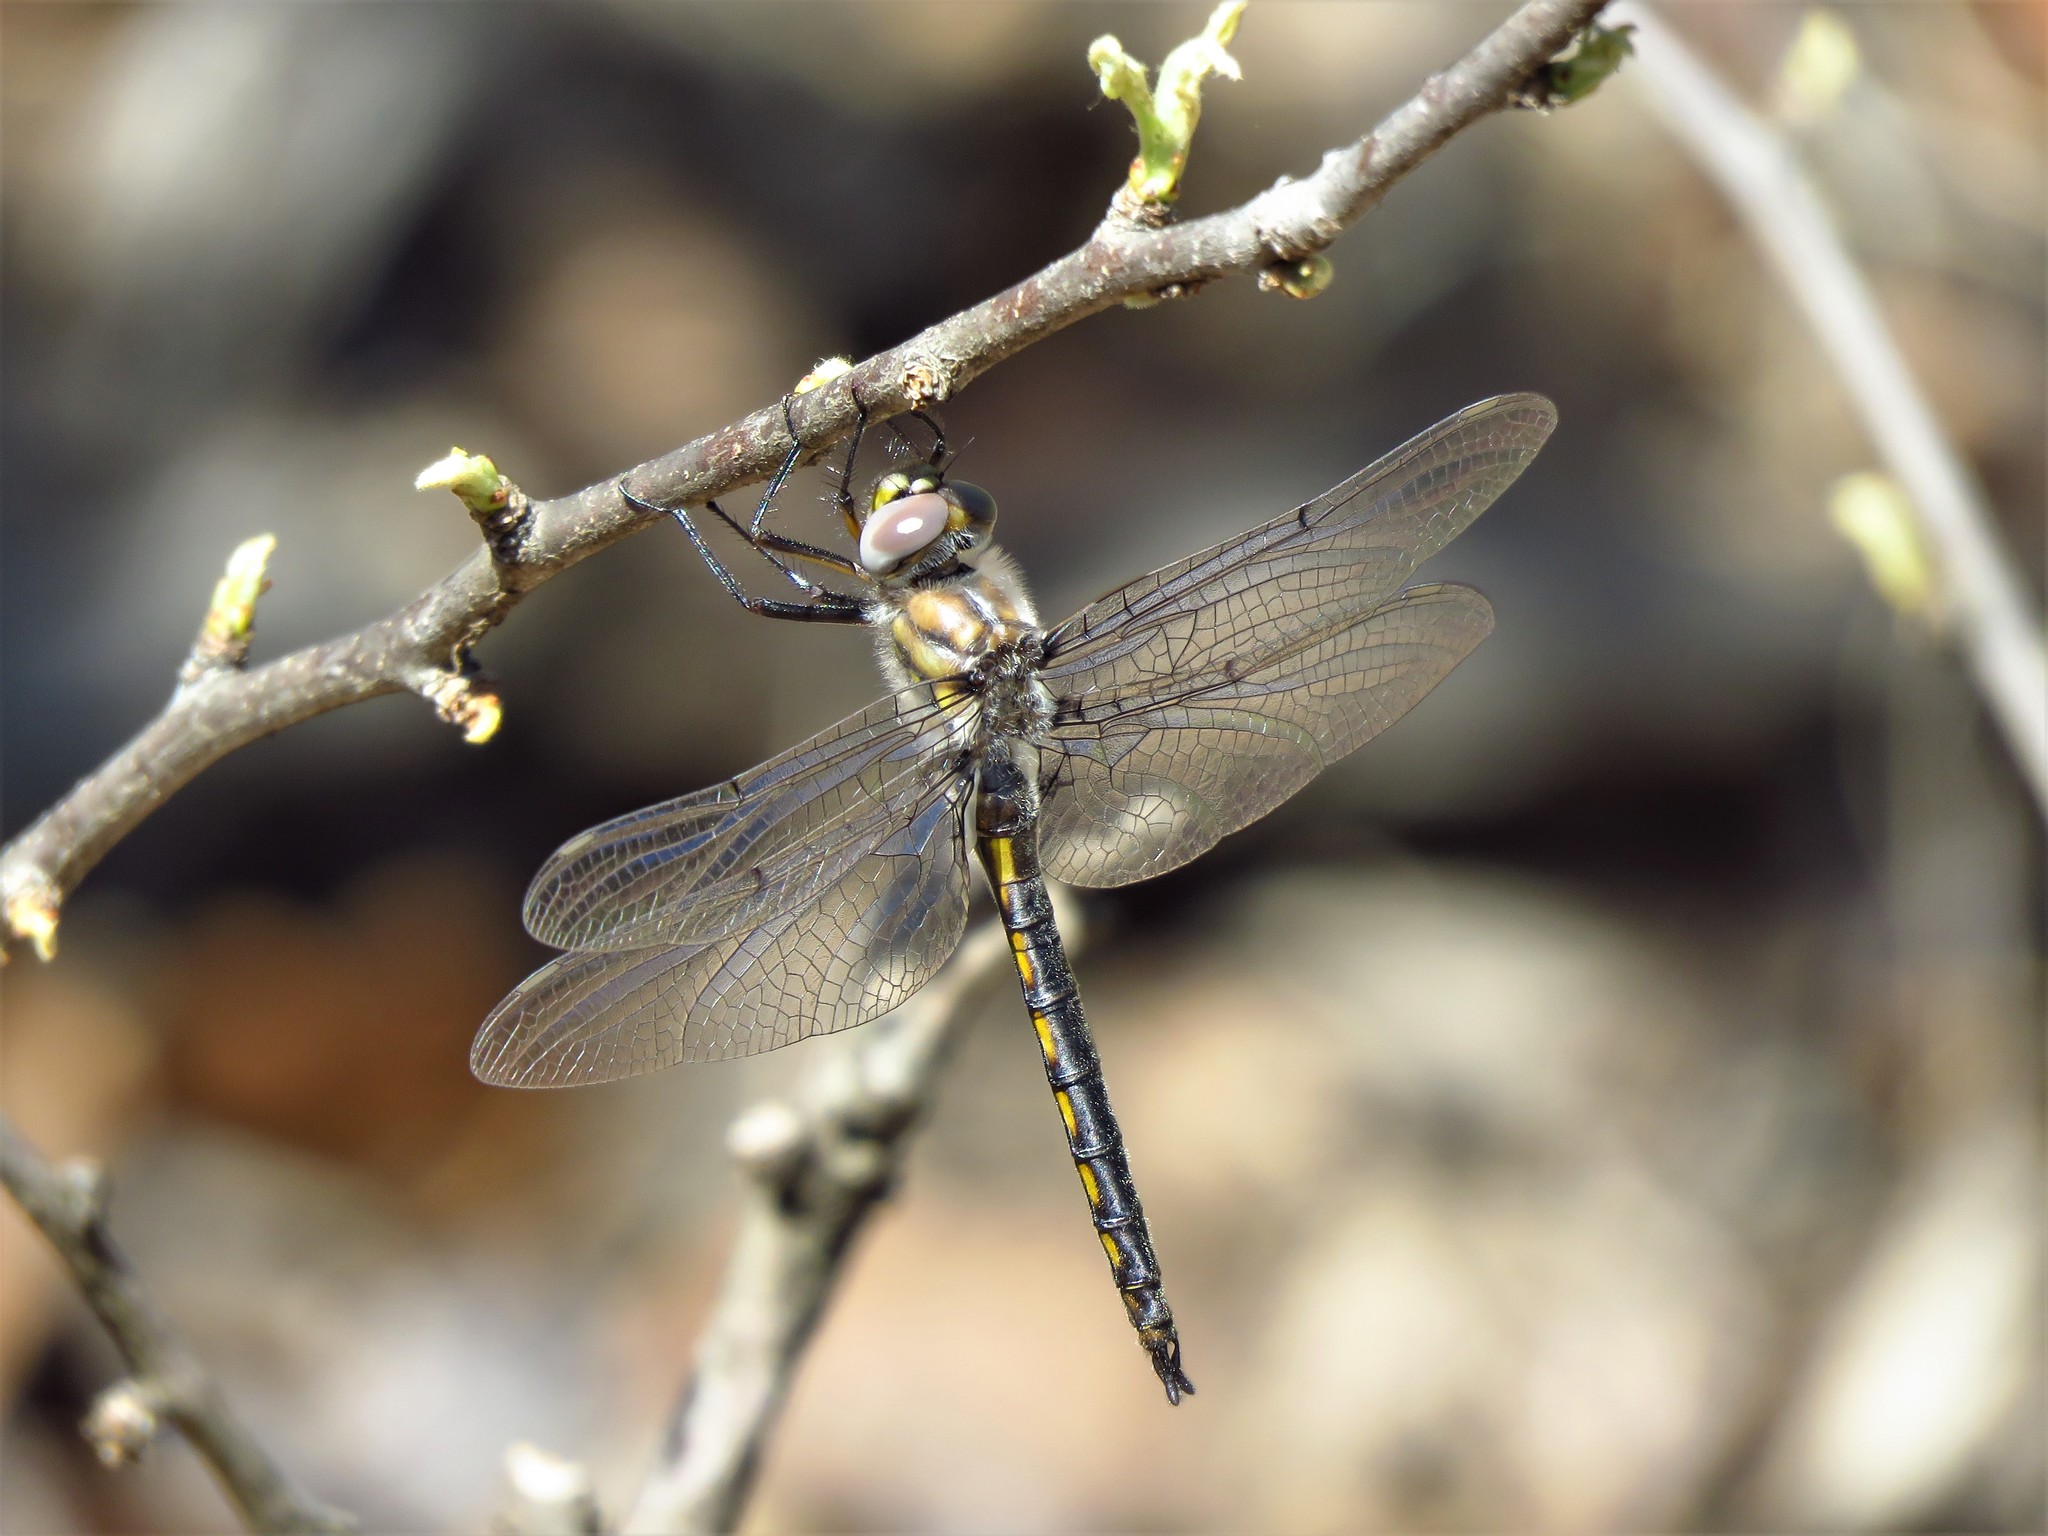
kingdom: Animalia
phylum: Arthropoda
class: Insecta
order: Odonata
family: Corduliidae
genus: Epitheca
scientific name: Epitheca petechialis
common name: Dot-winged baskettail
